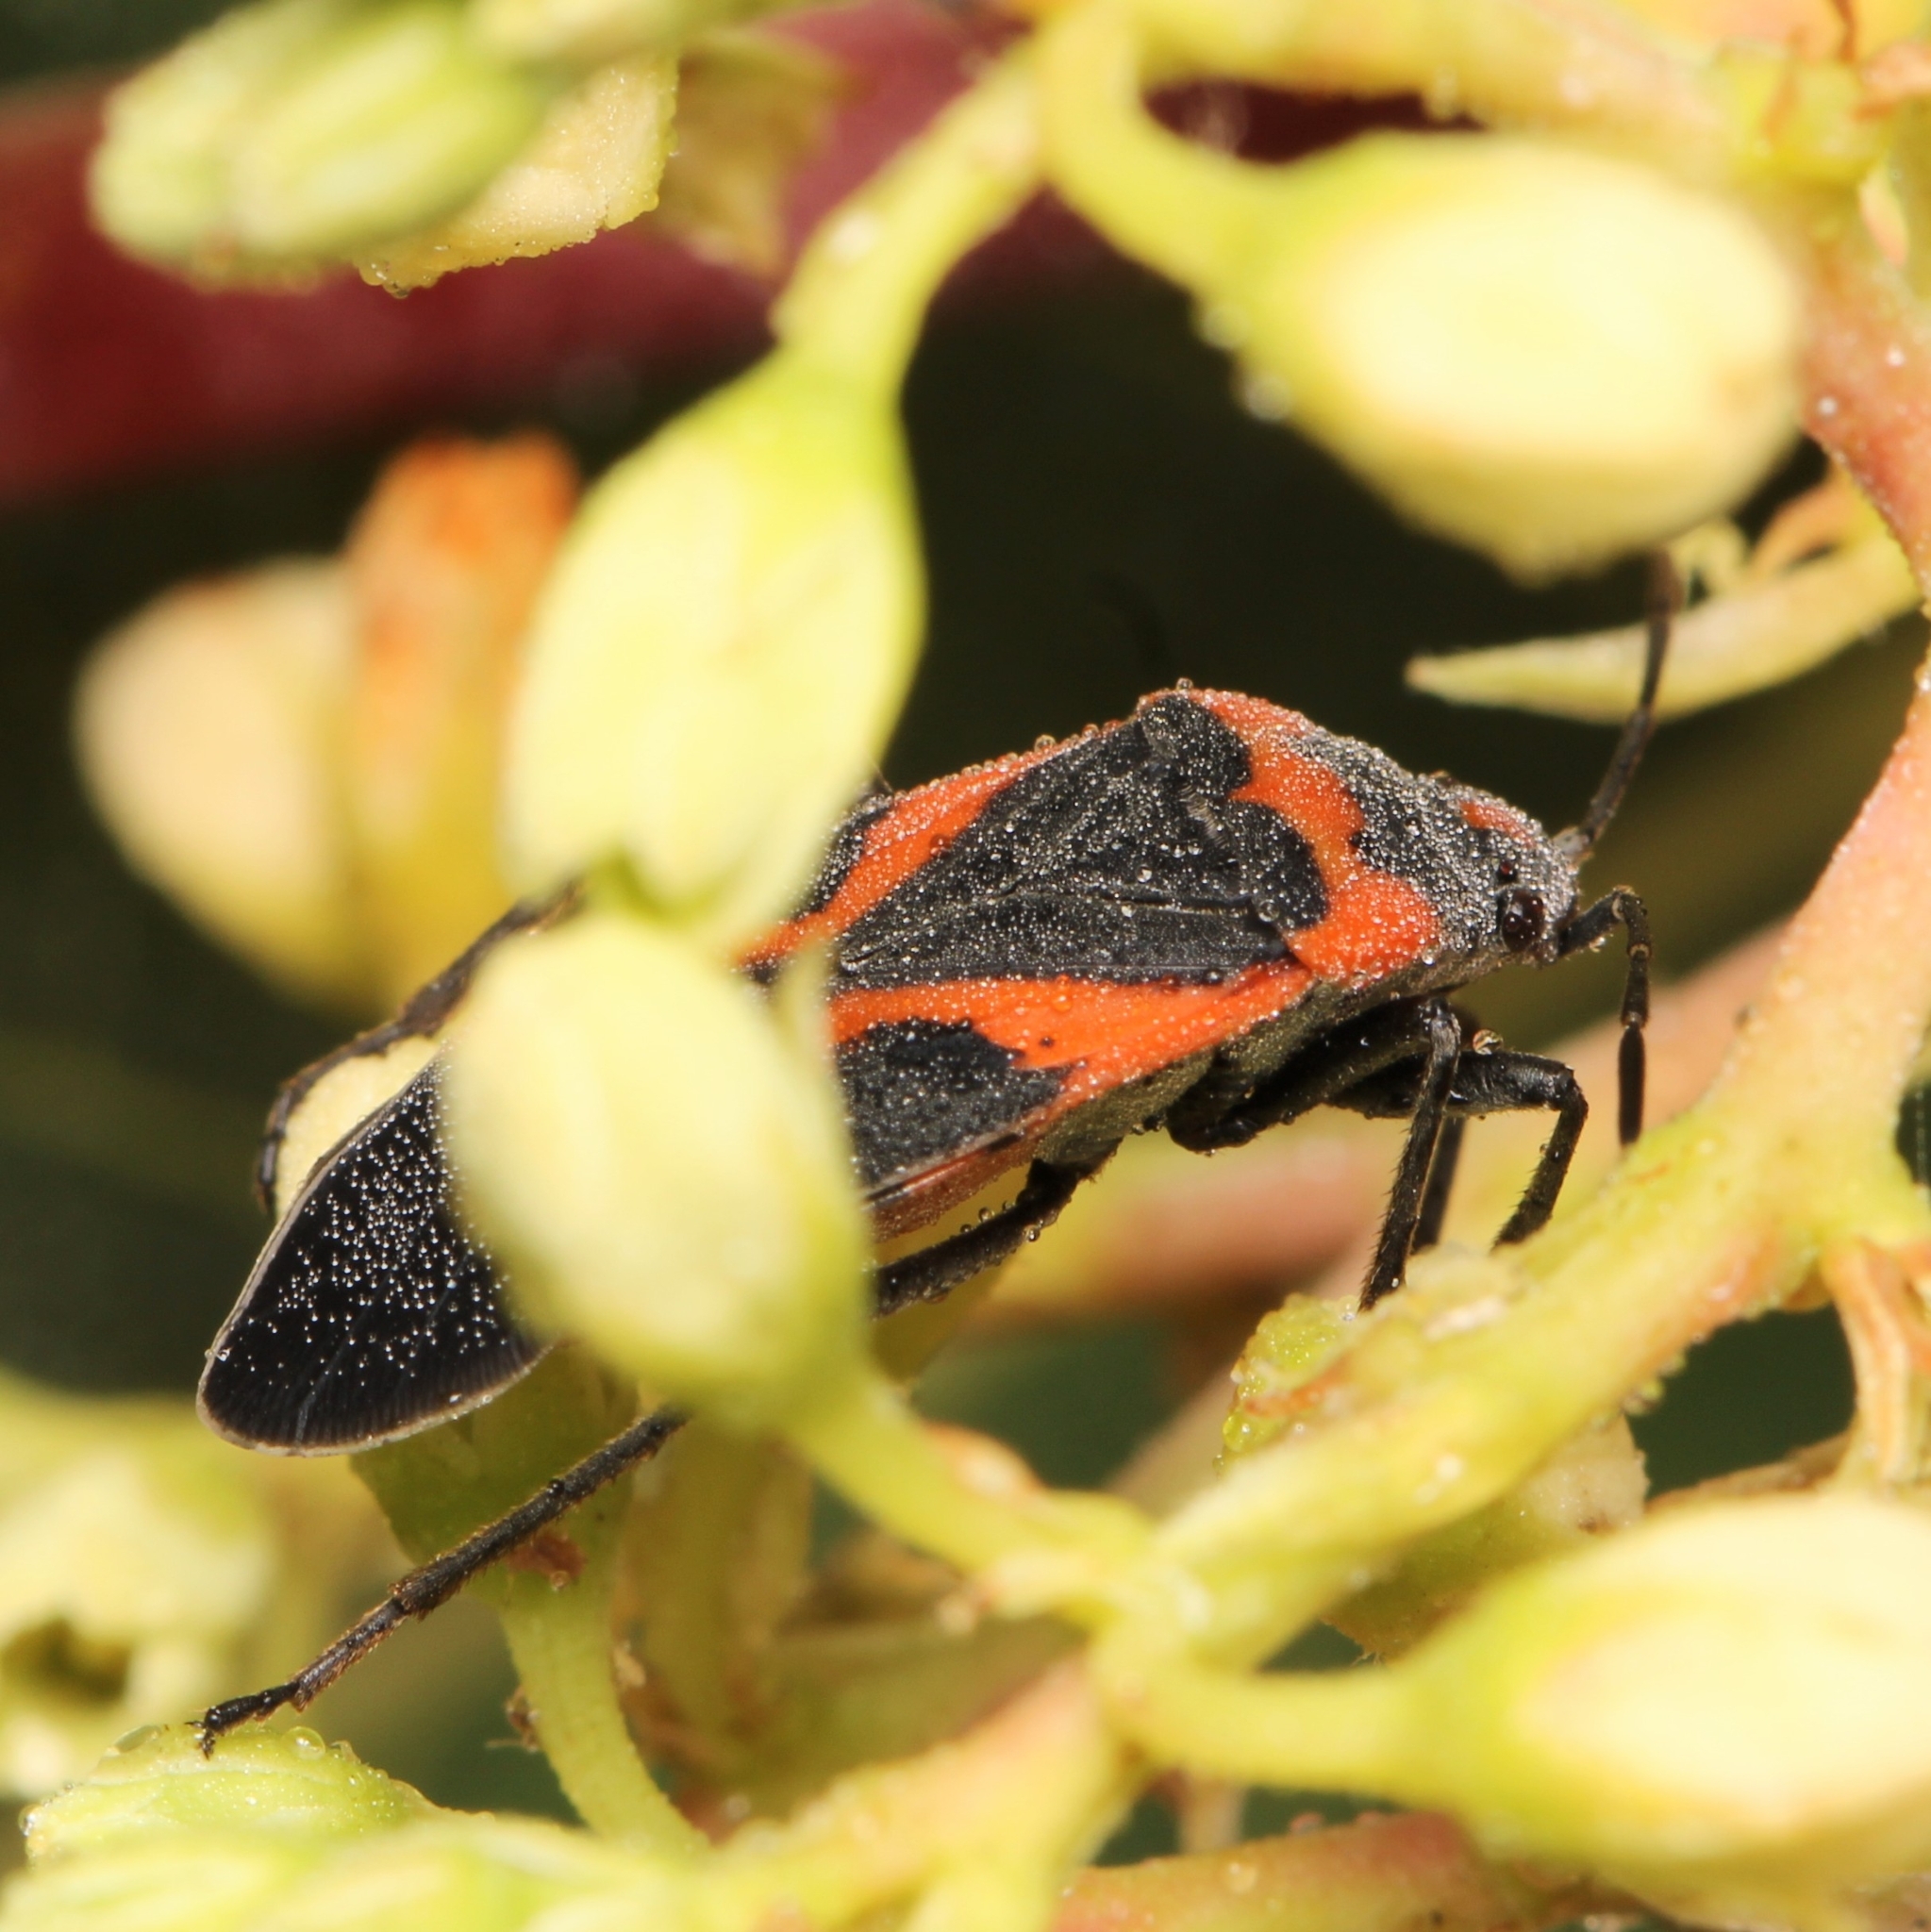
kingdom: Animalia
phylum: Arthropoda
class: Insecta
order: Hemiptera
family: Lygaeidae
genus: Lygaeus
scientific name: Lygaeus kalmii
